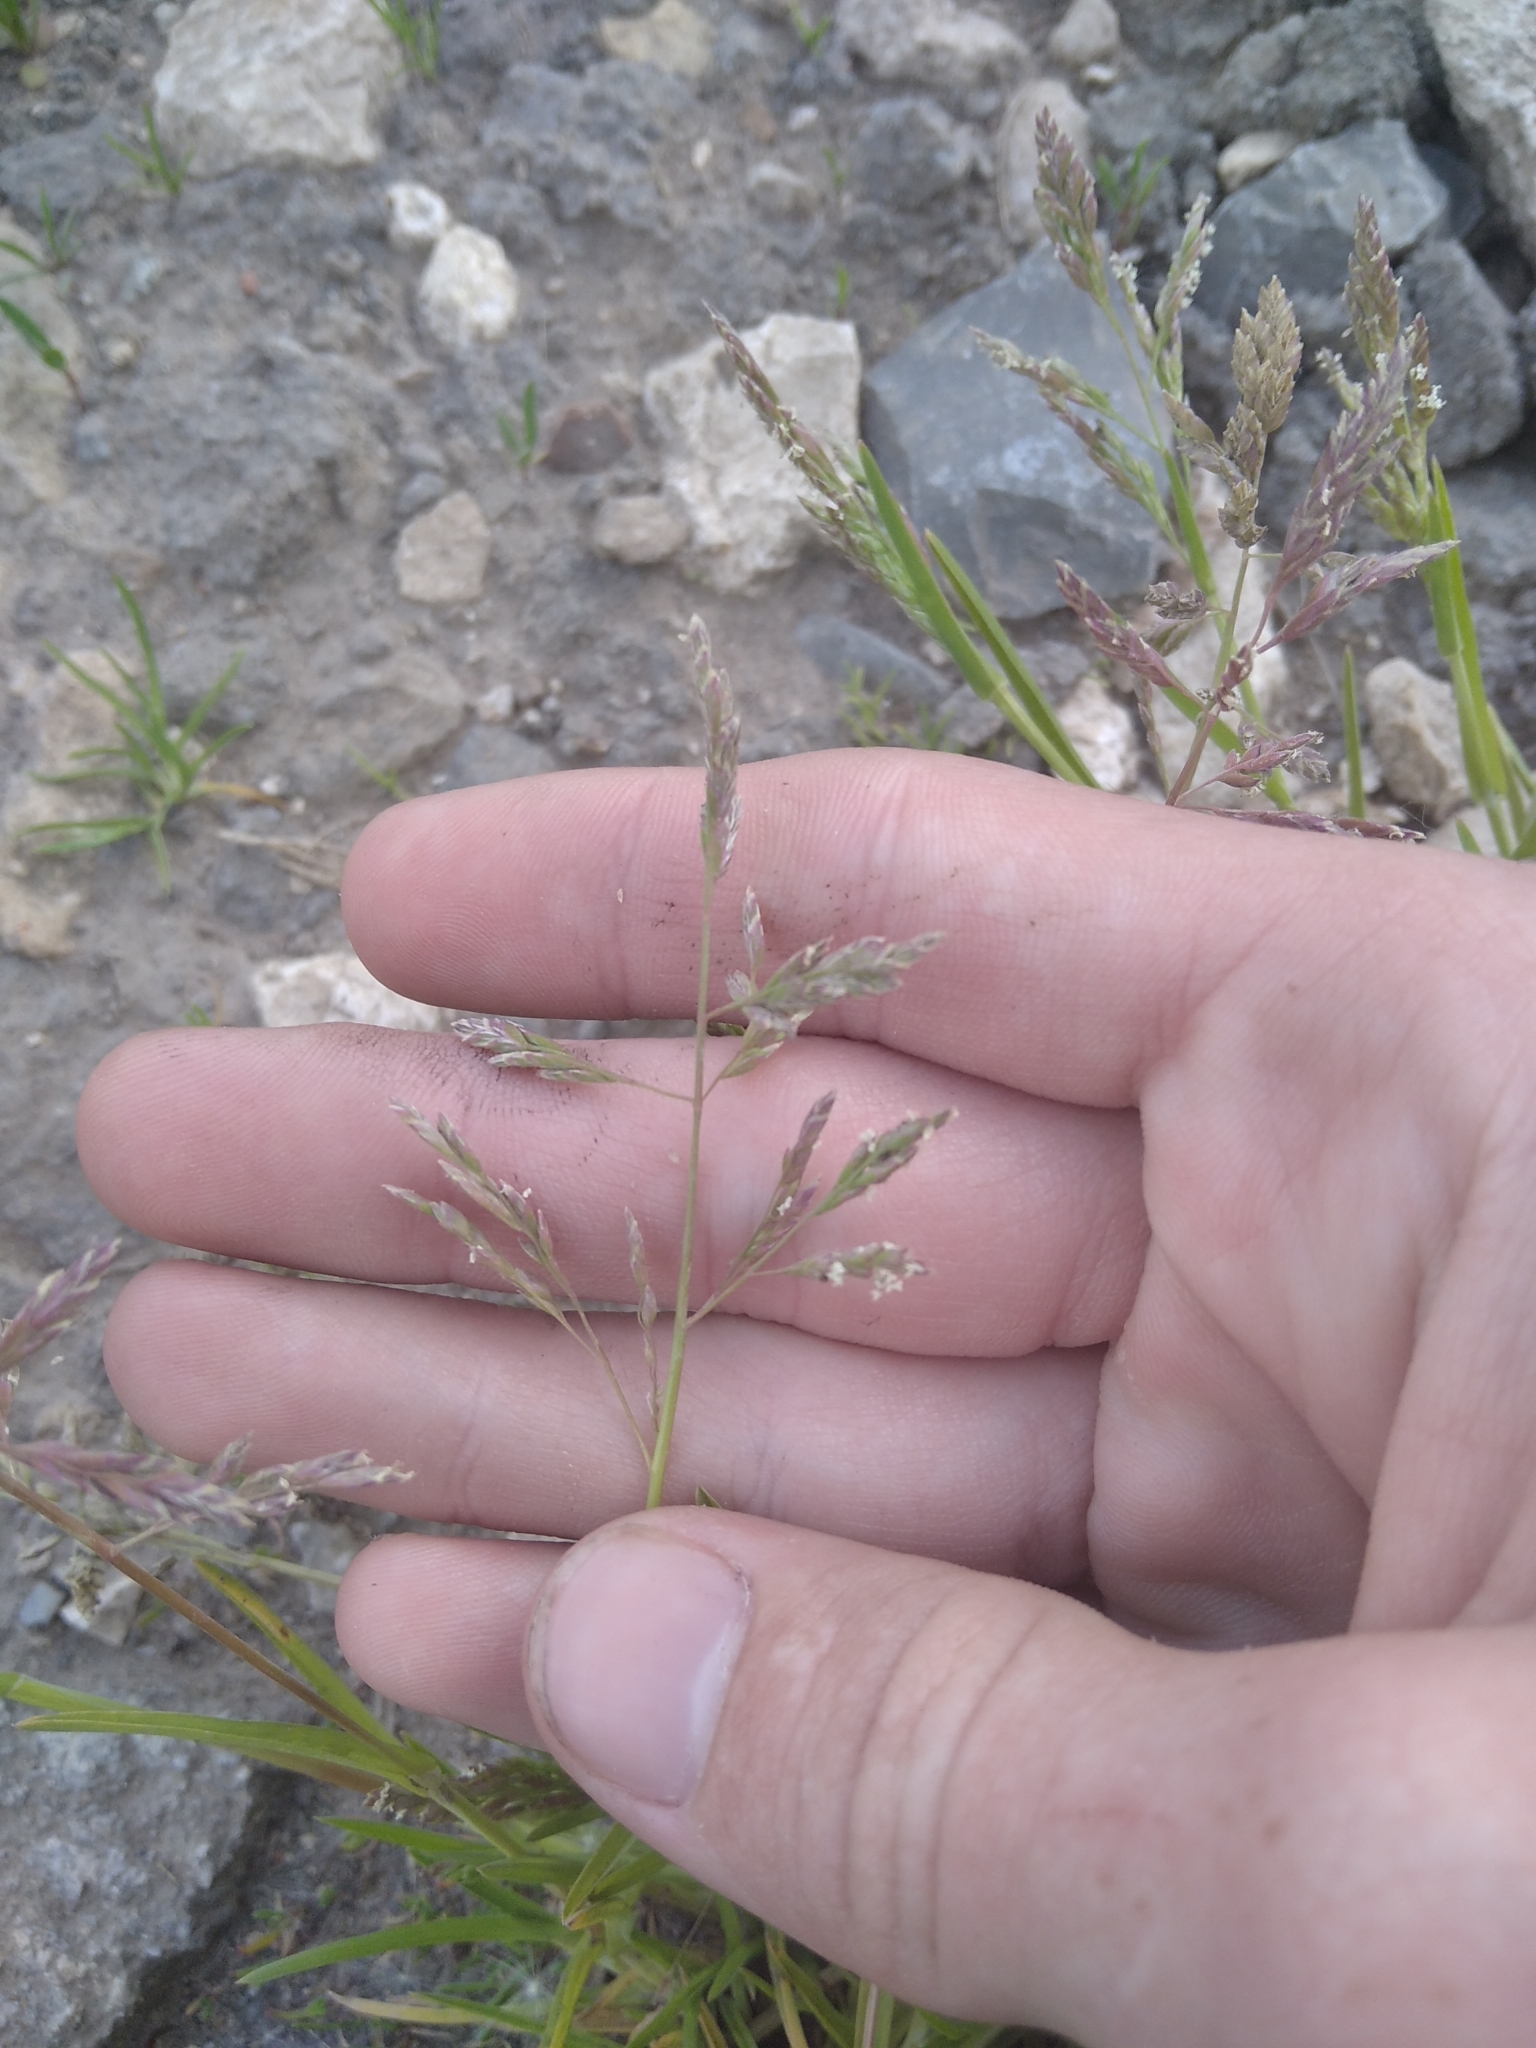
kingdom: Plantae
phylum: Tracheophyta
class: Liliopsida
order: Poales
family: Poaceae
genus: Poa
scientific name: Poa annua
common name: Annual bluegrass
